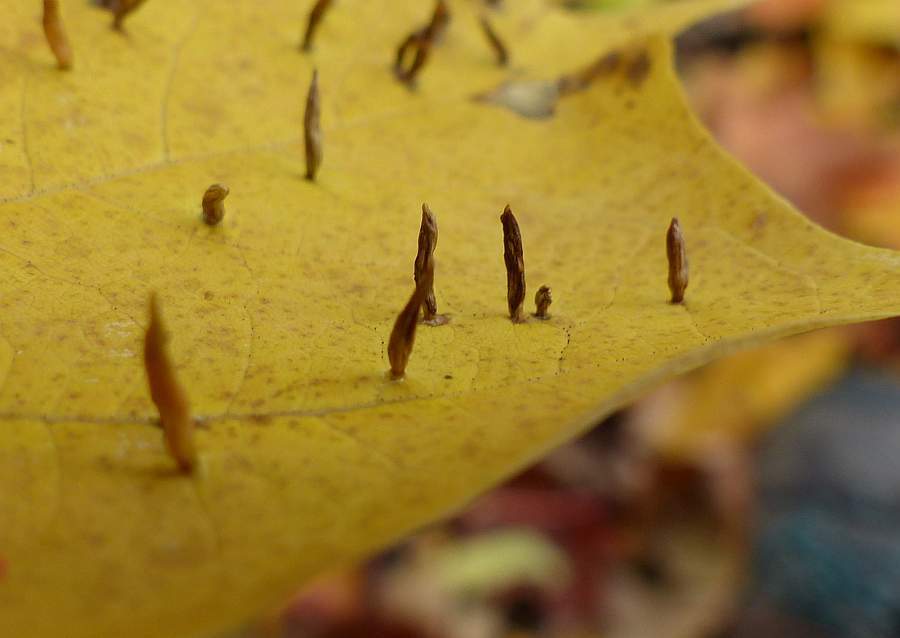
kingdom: Animalia
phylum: Arthropoda
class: Arachnida
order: Trombidiformes
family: Eriophyidae
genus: Vasates
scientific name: Vasates aceriscrumena
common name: Maple spindle gall mite
